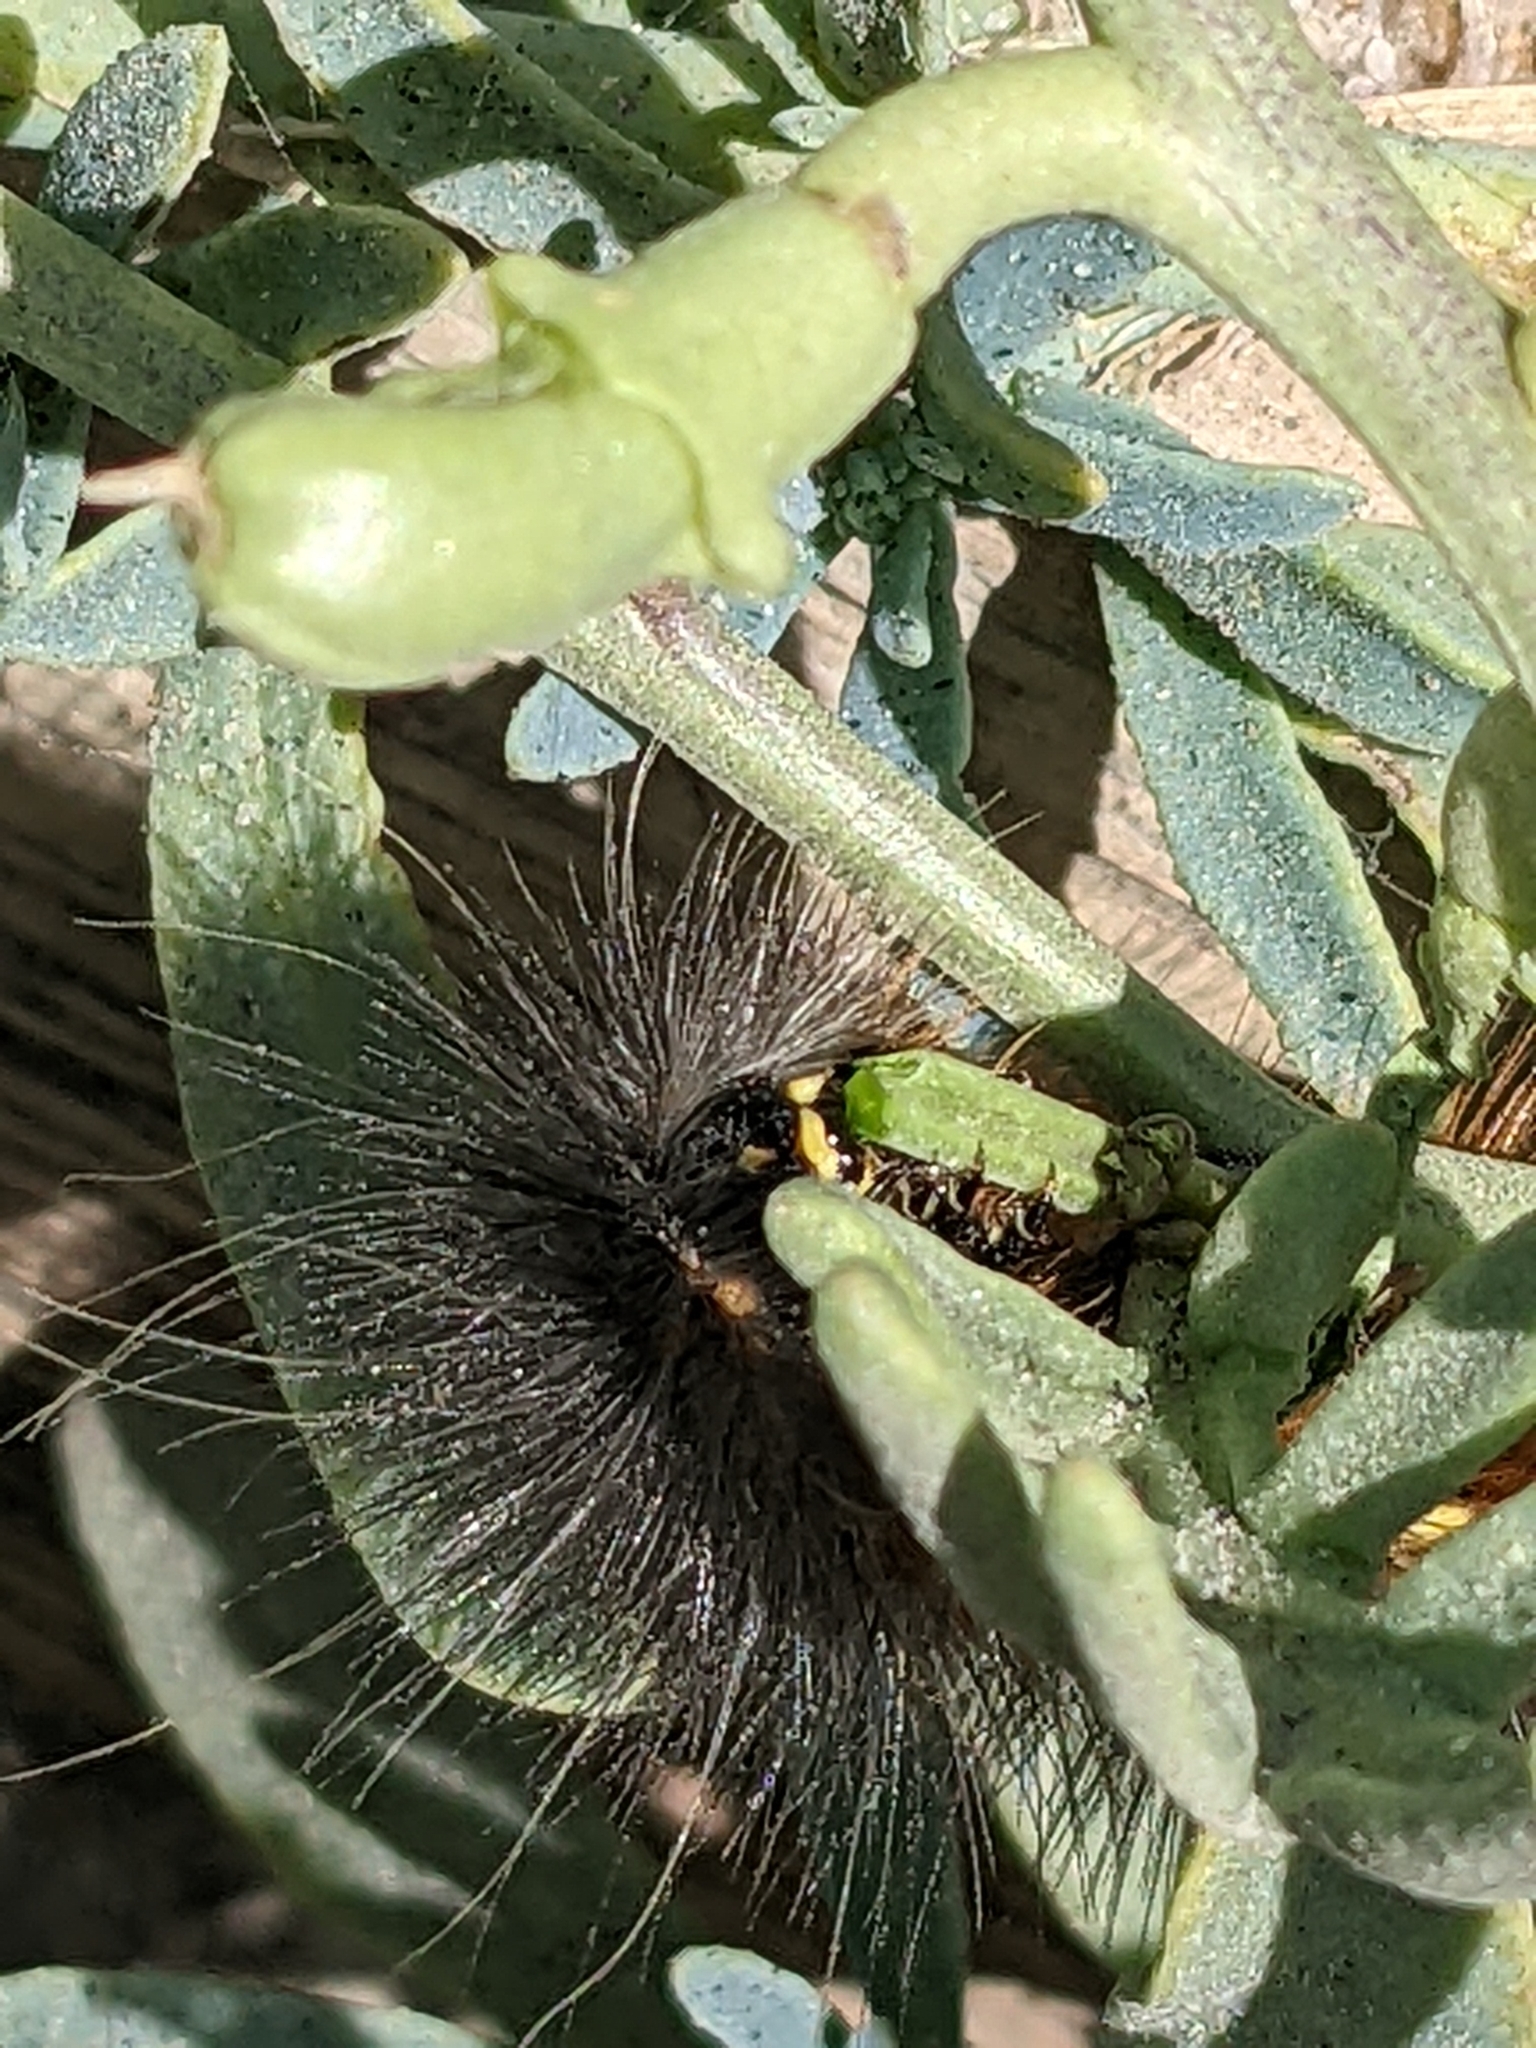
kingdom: Animalia
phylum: Arthropoda
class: Insecta
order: Lepidoptera
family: Erebidae
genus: Estigmene
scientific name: Estigmene acrea
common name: Salt marsh moth
